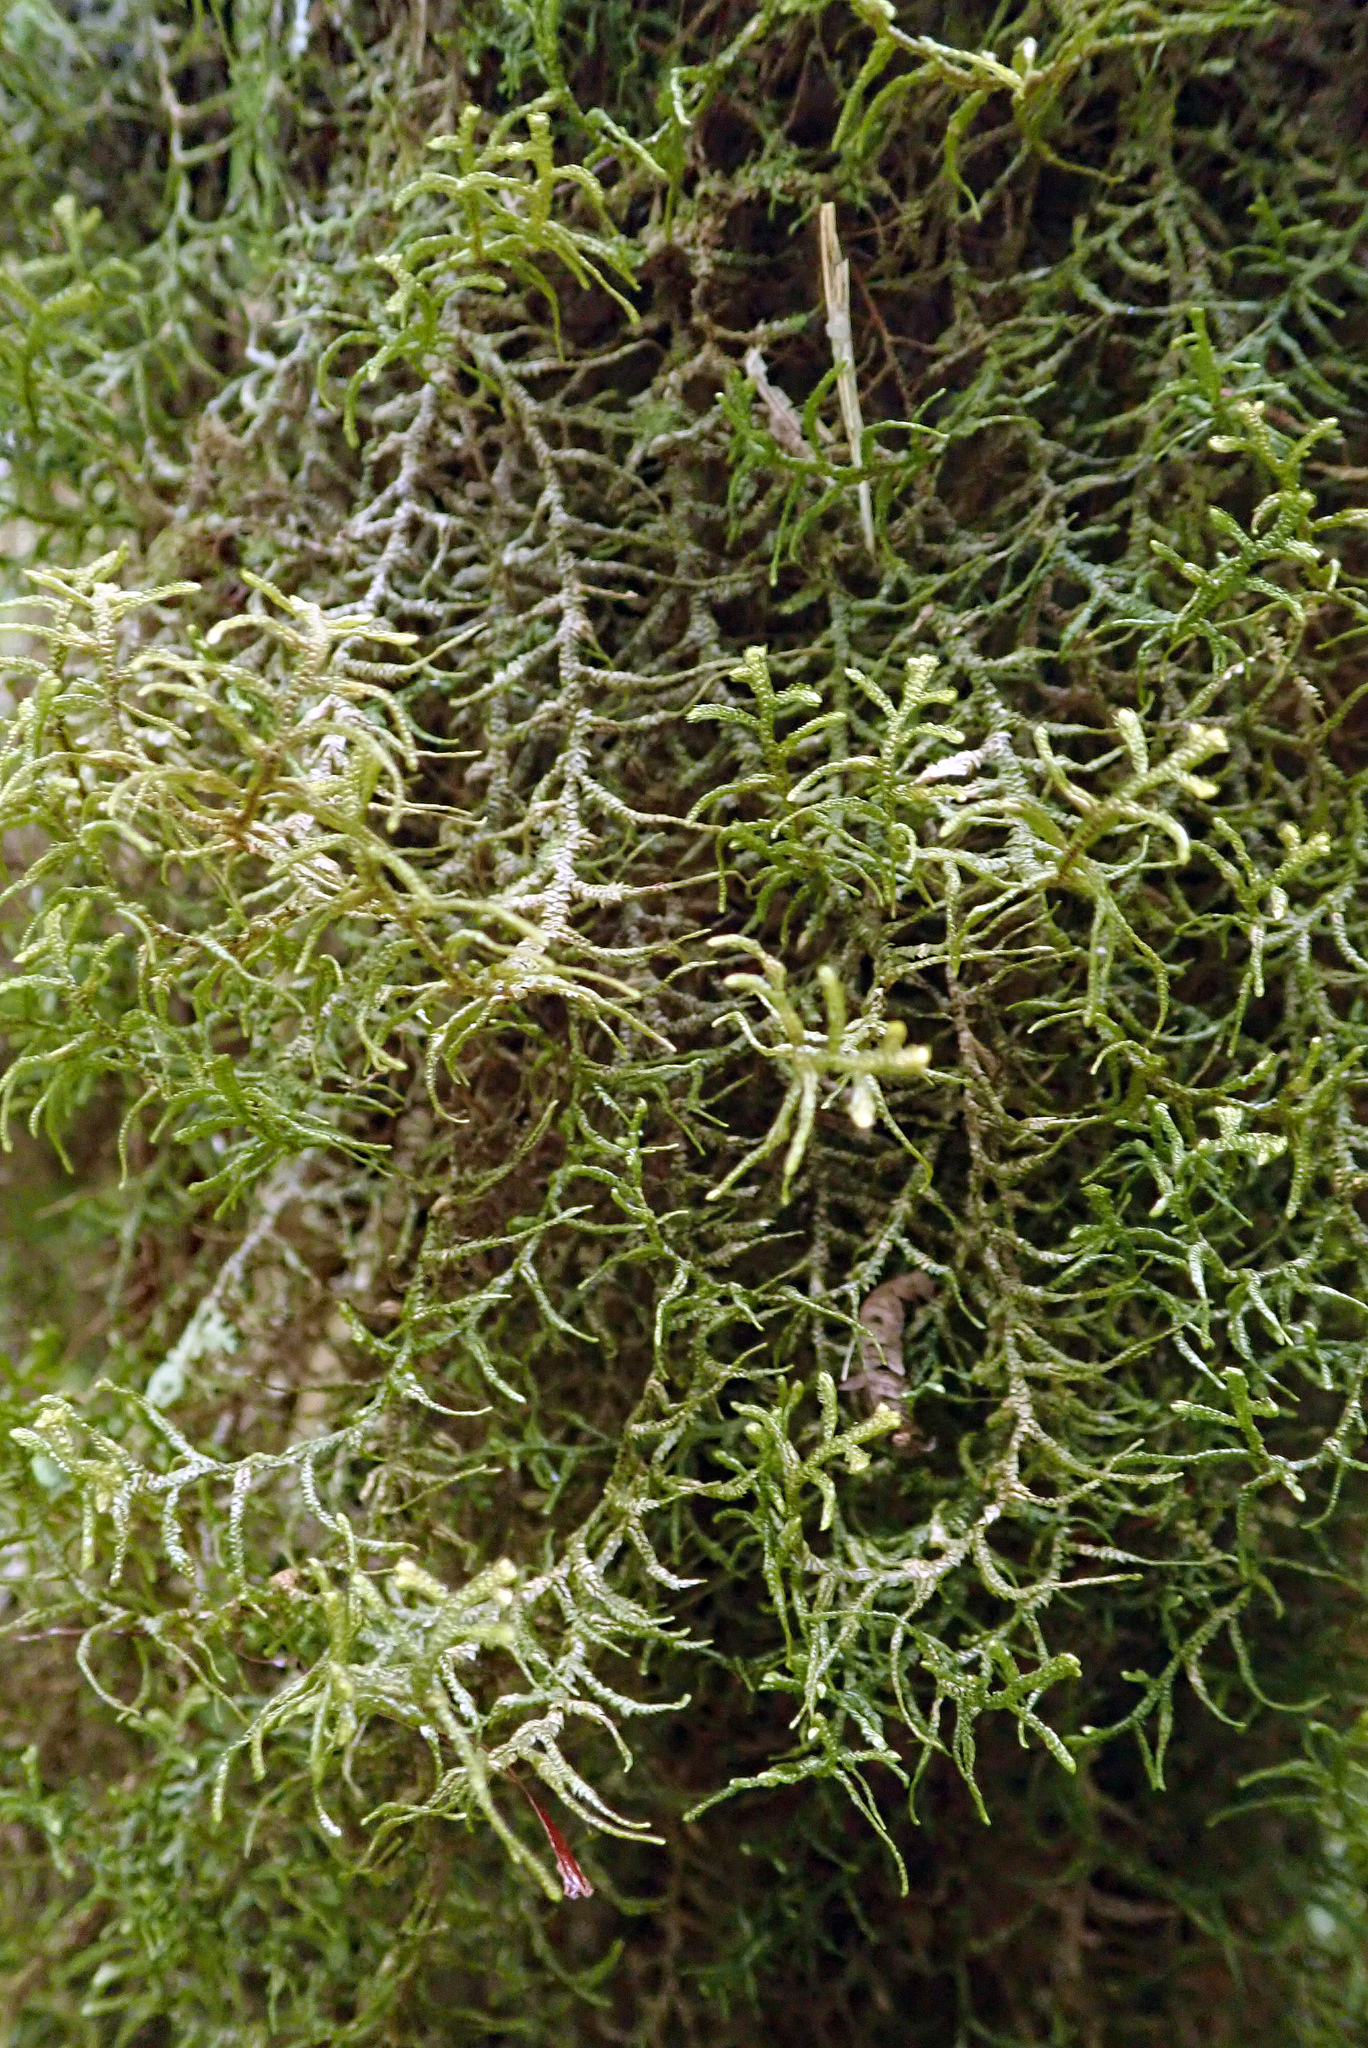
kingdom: Plantae
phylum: Marchantiophyta
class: Jungermanniopsida
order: Jungermanniales
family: Mastigophoraceae
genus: Dendromastigophora
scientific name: Dendromastigophora flagellifera
